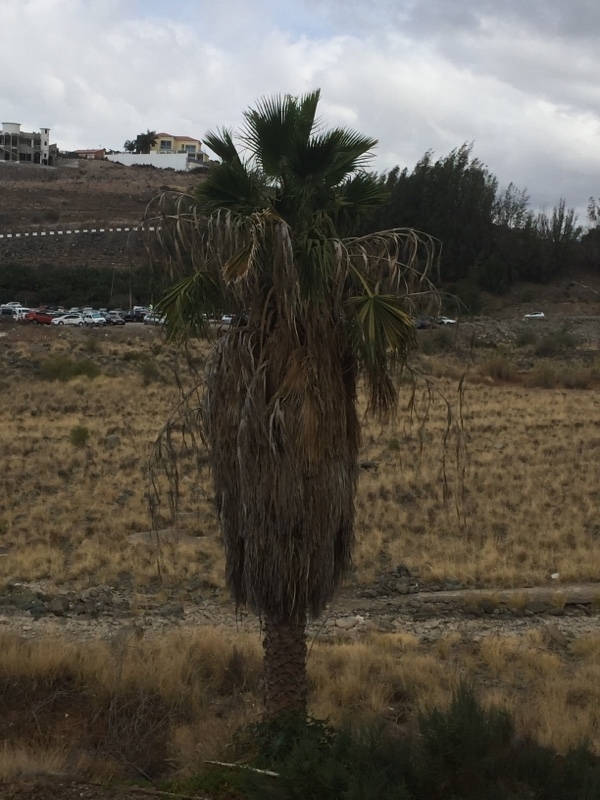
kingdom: Plantae
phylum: Tracheophyta
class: Liliopsida
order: Arecales
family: Arecaceae
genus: Washingtonia
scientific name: Washingtonia robusta
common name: Mexican fan palm
